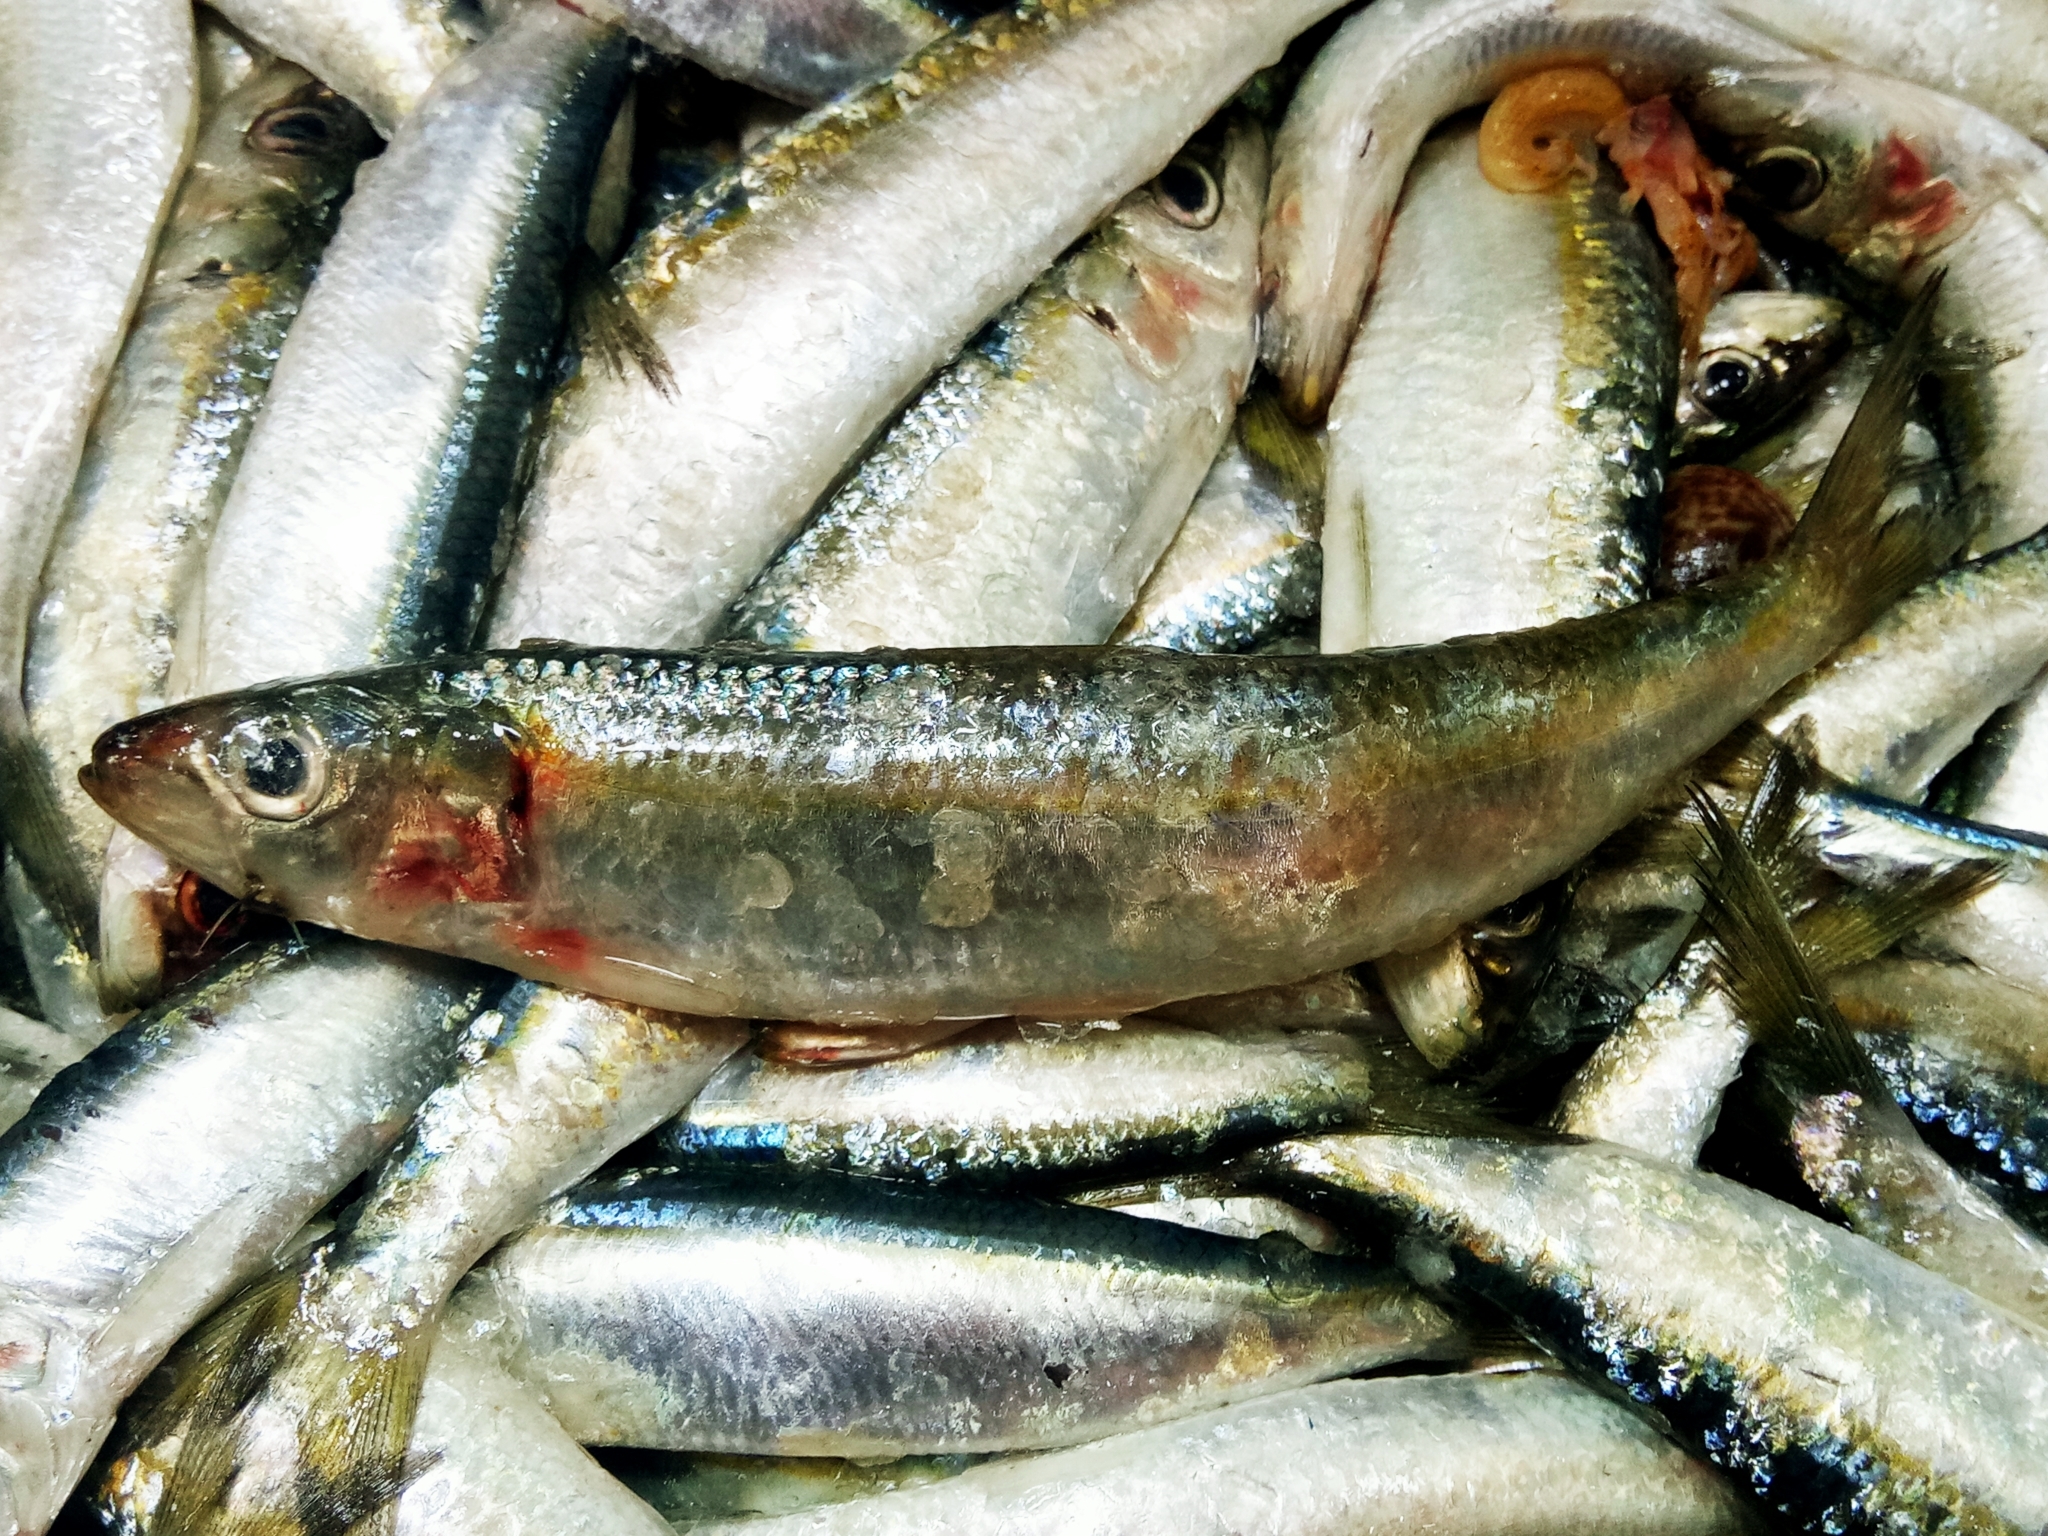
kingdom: Animalia
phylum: Chordata
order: Clupeiformes
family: Clupeidae
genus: Sardinella
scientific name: Sardinella aurita
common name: Round sardinella
